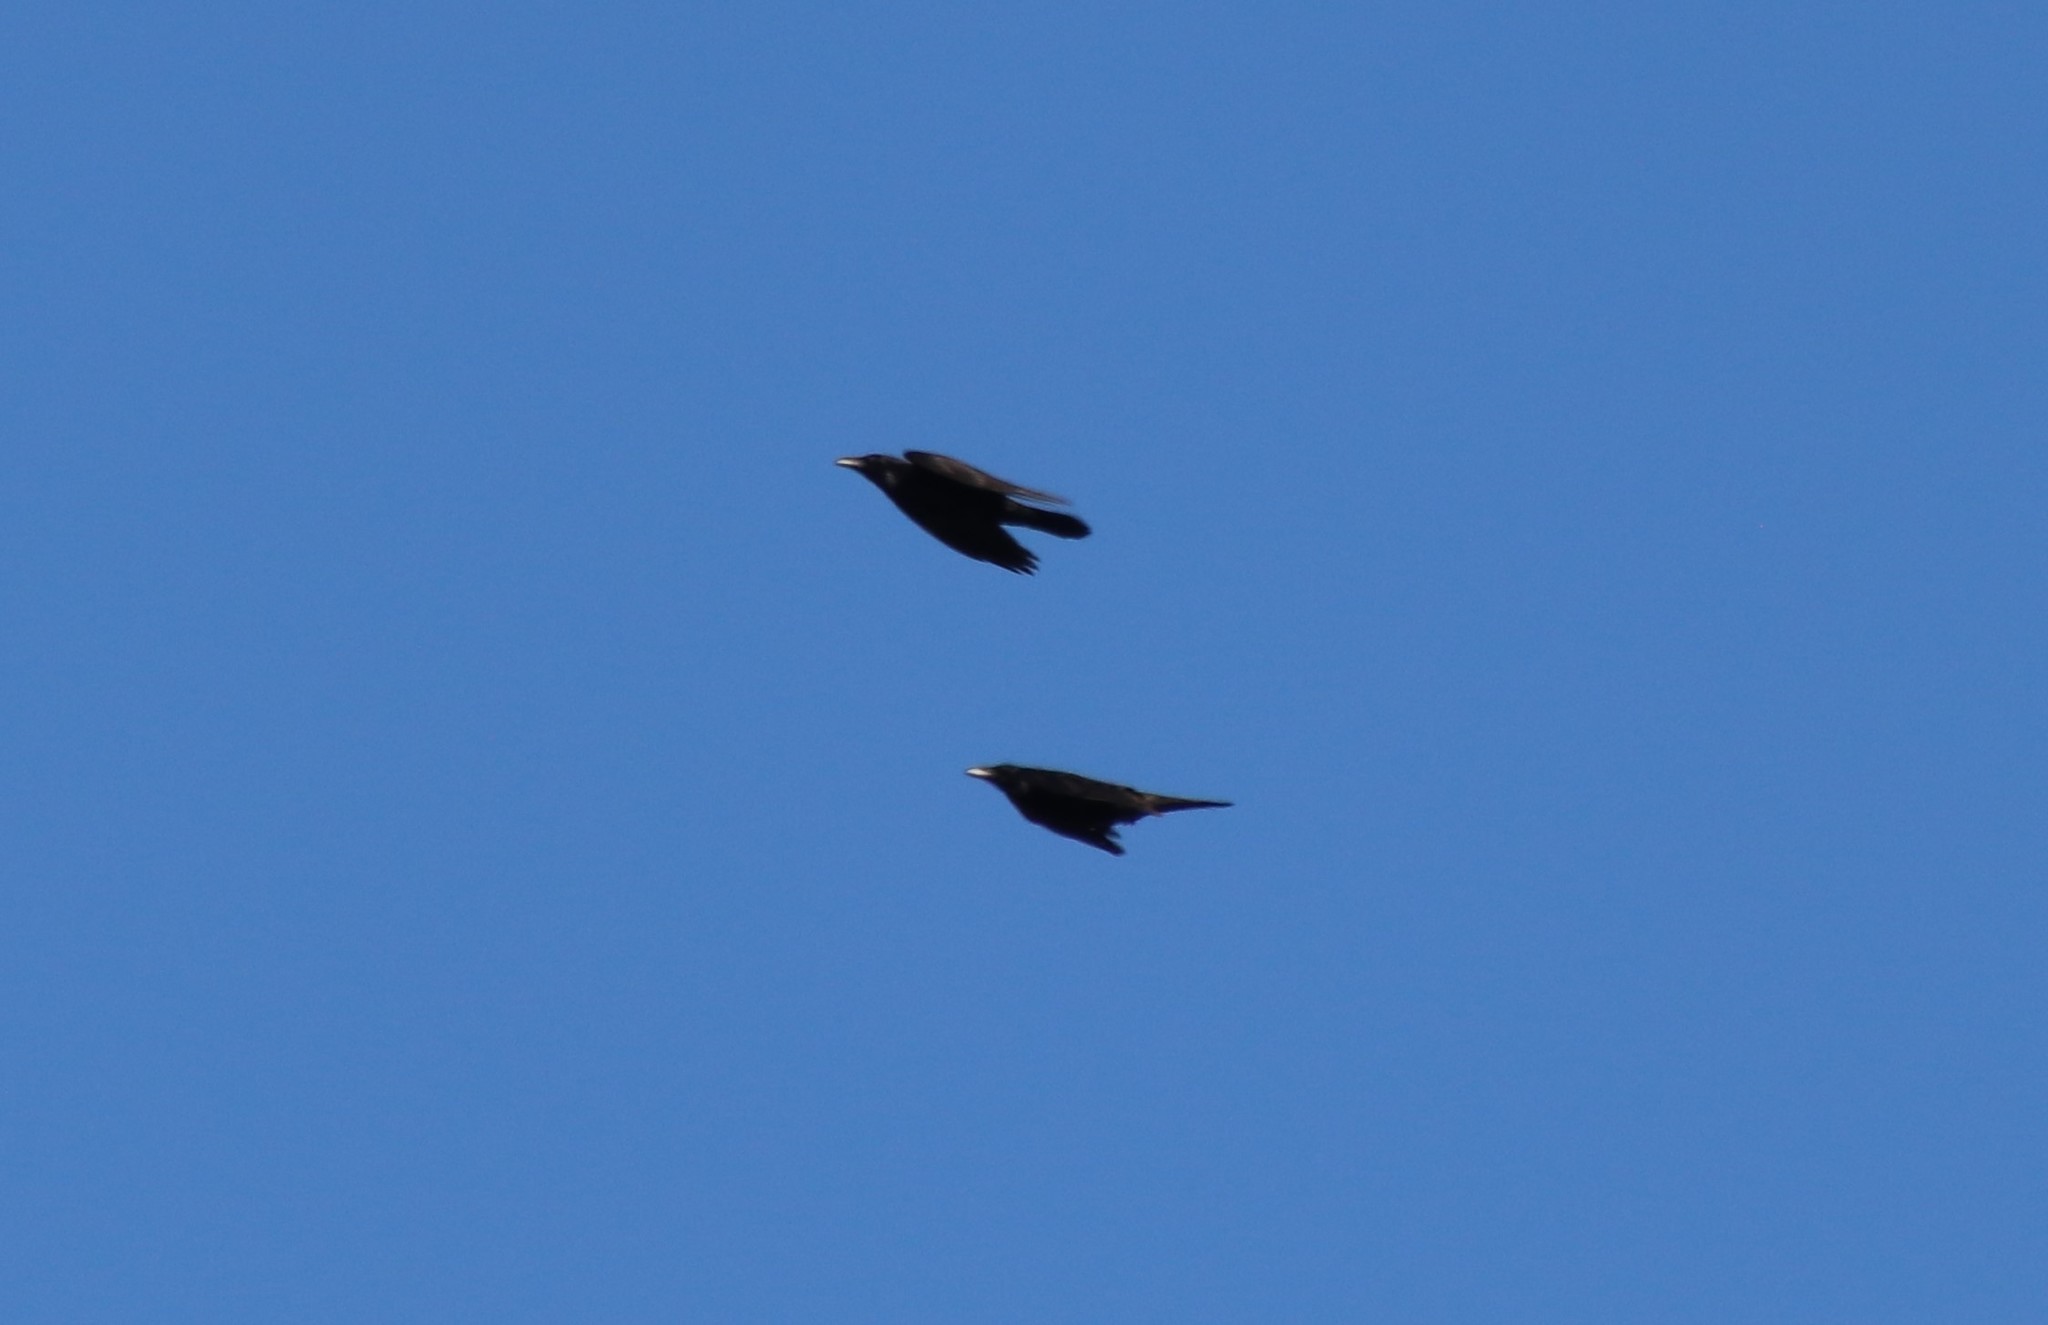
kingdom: Animalia
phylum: Chordata
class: Aves
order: Passeriformes
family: Corvidae
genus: Corvus
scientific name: Corvus corax
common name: Common raven
